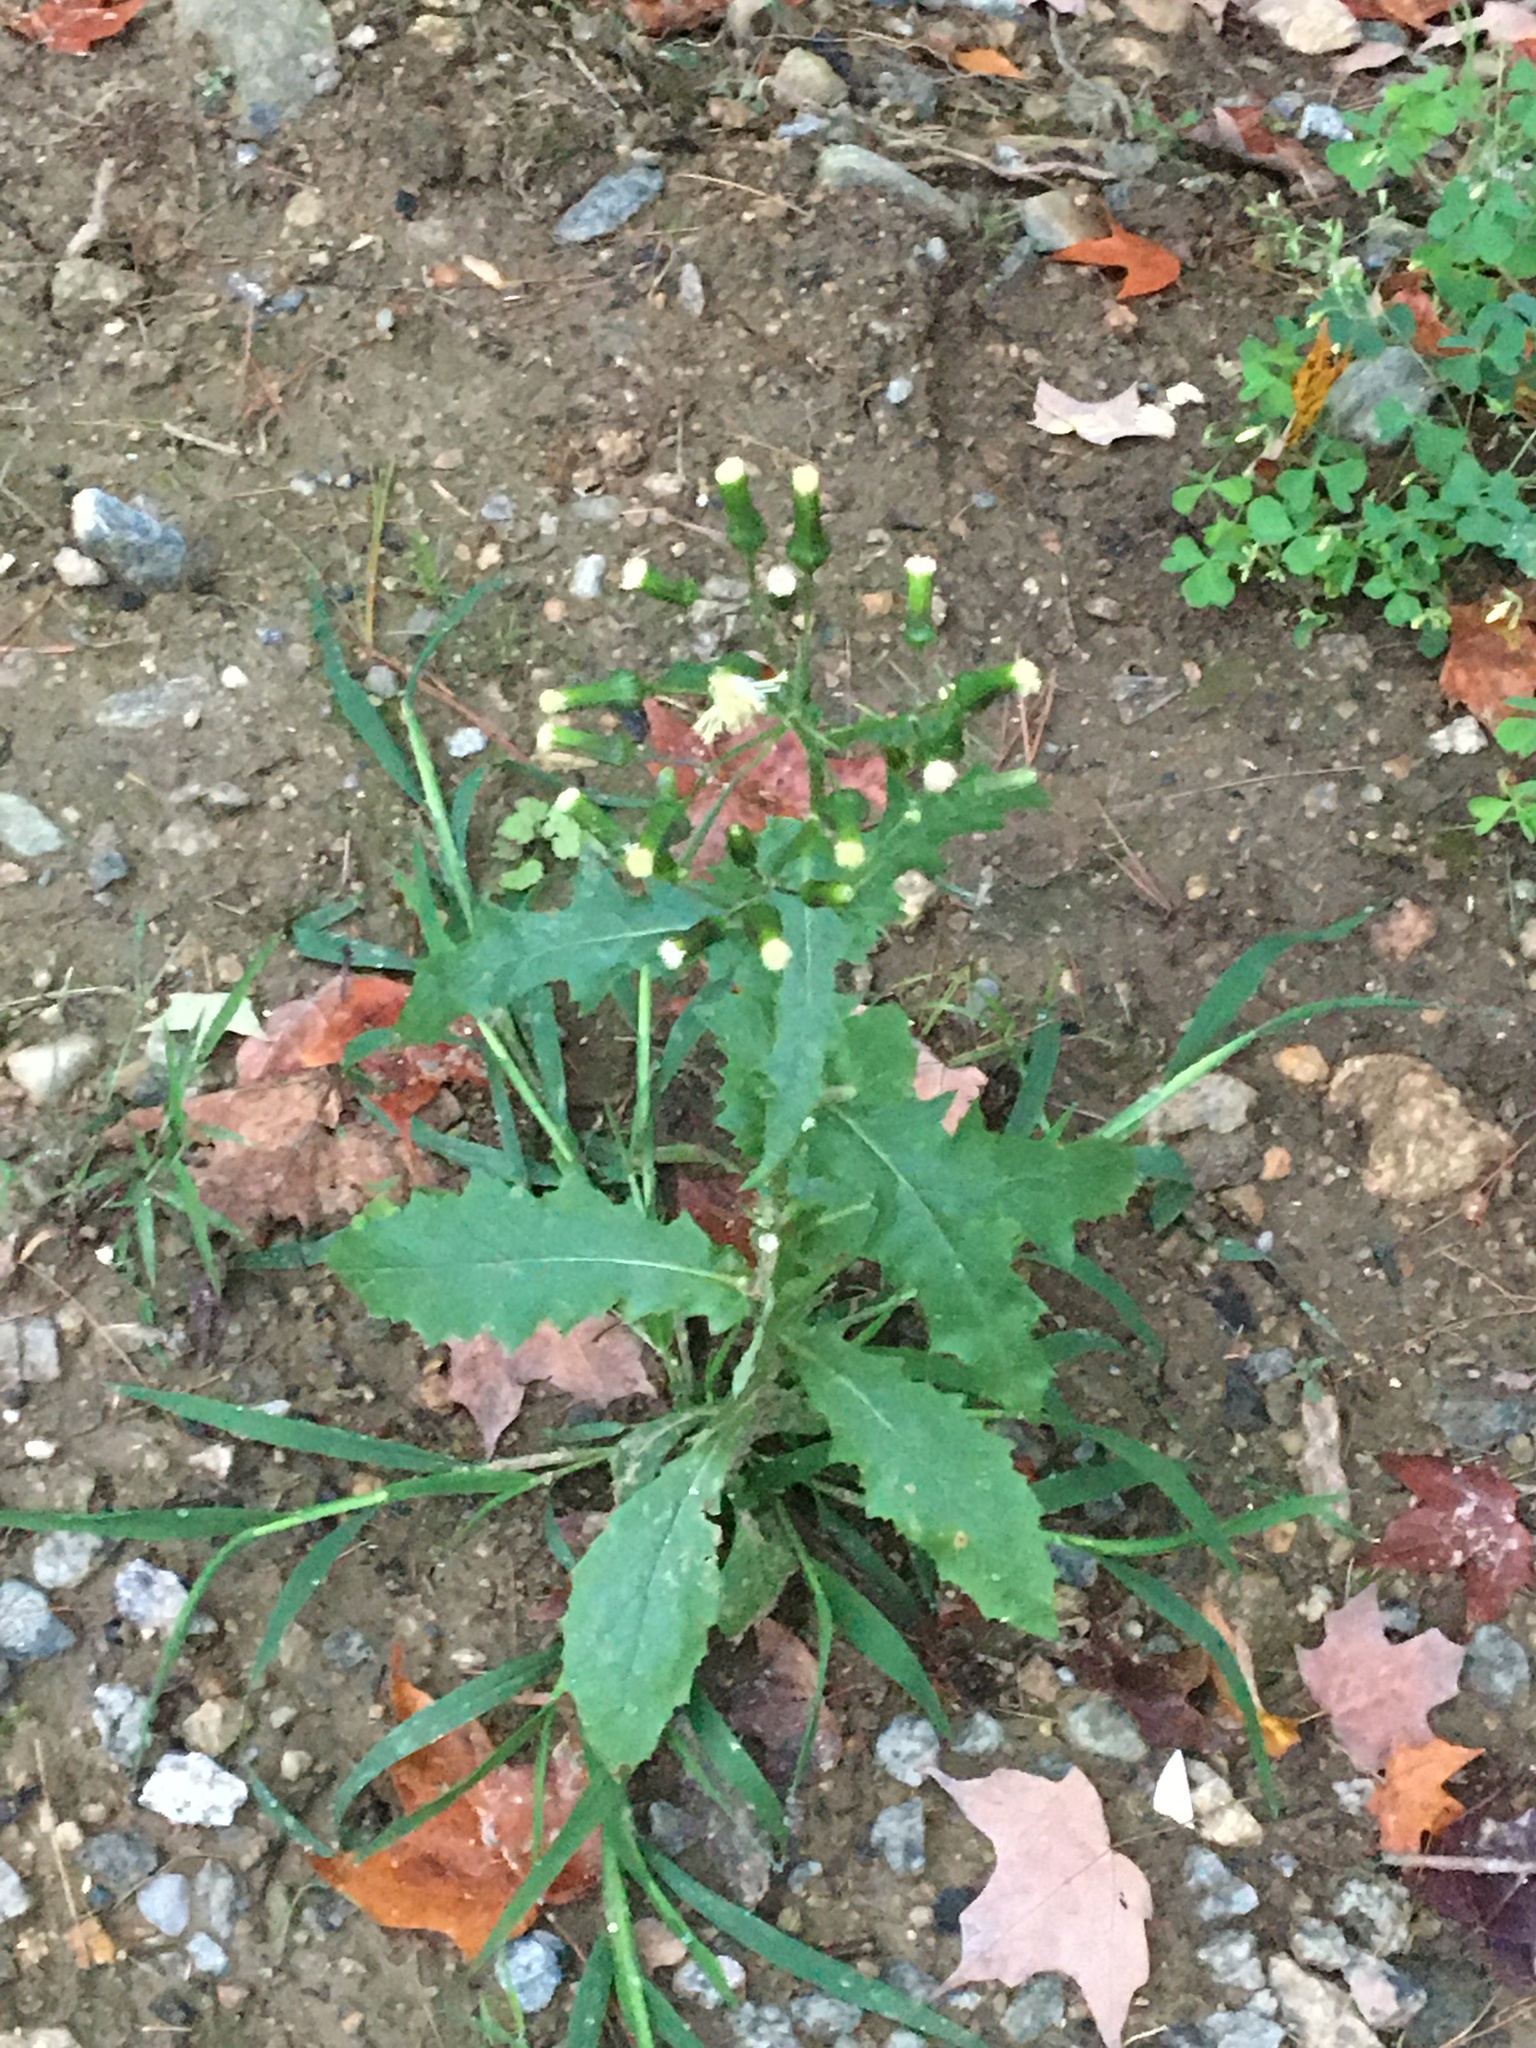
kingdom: Plantae
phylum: Tracheophyta
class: Magnoliopsida
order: Asterales
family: Asteraceae
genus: Erechtites
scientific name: Erechtites hieraciifolius
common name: American burnweed
